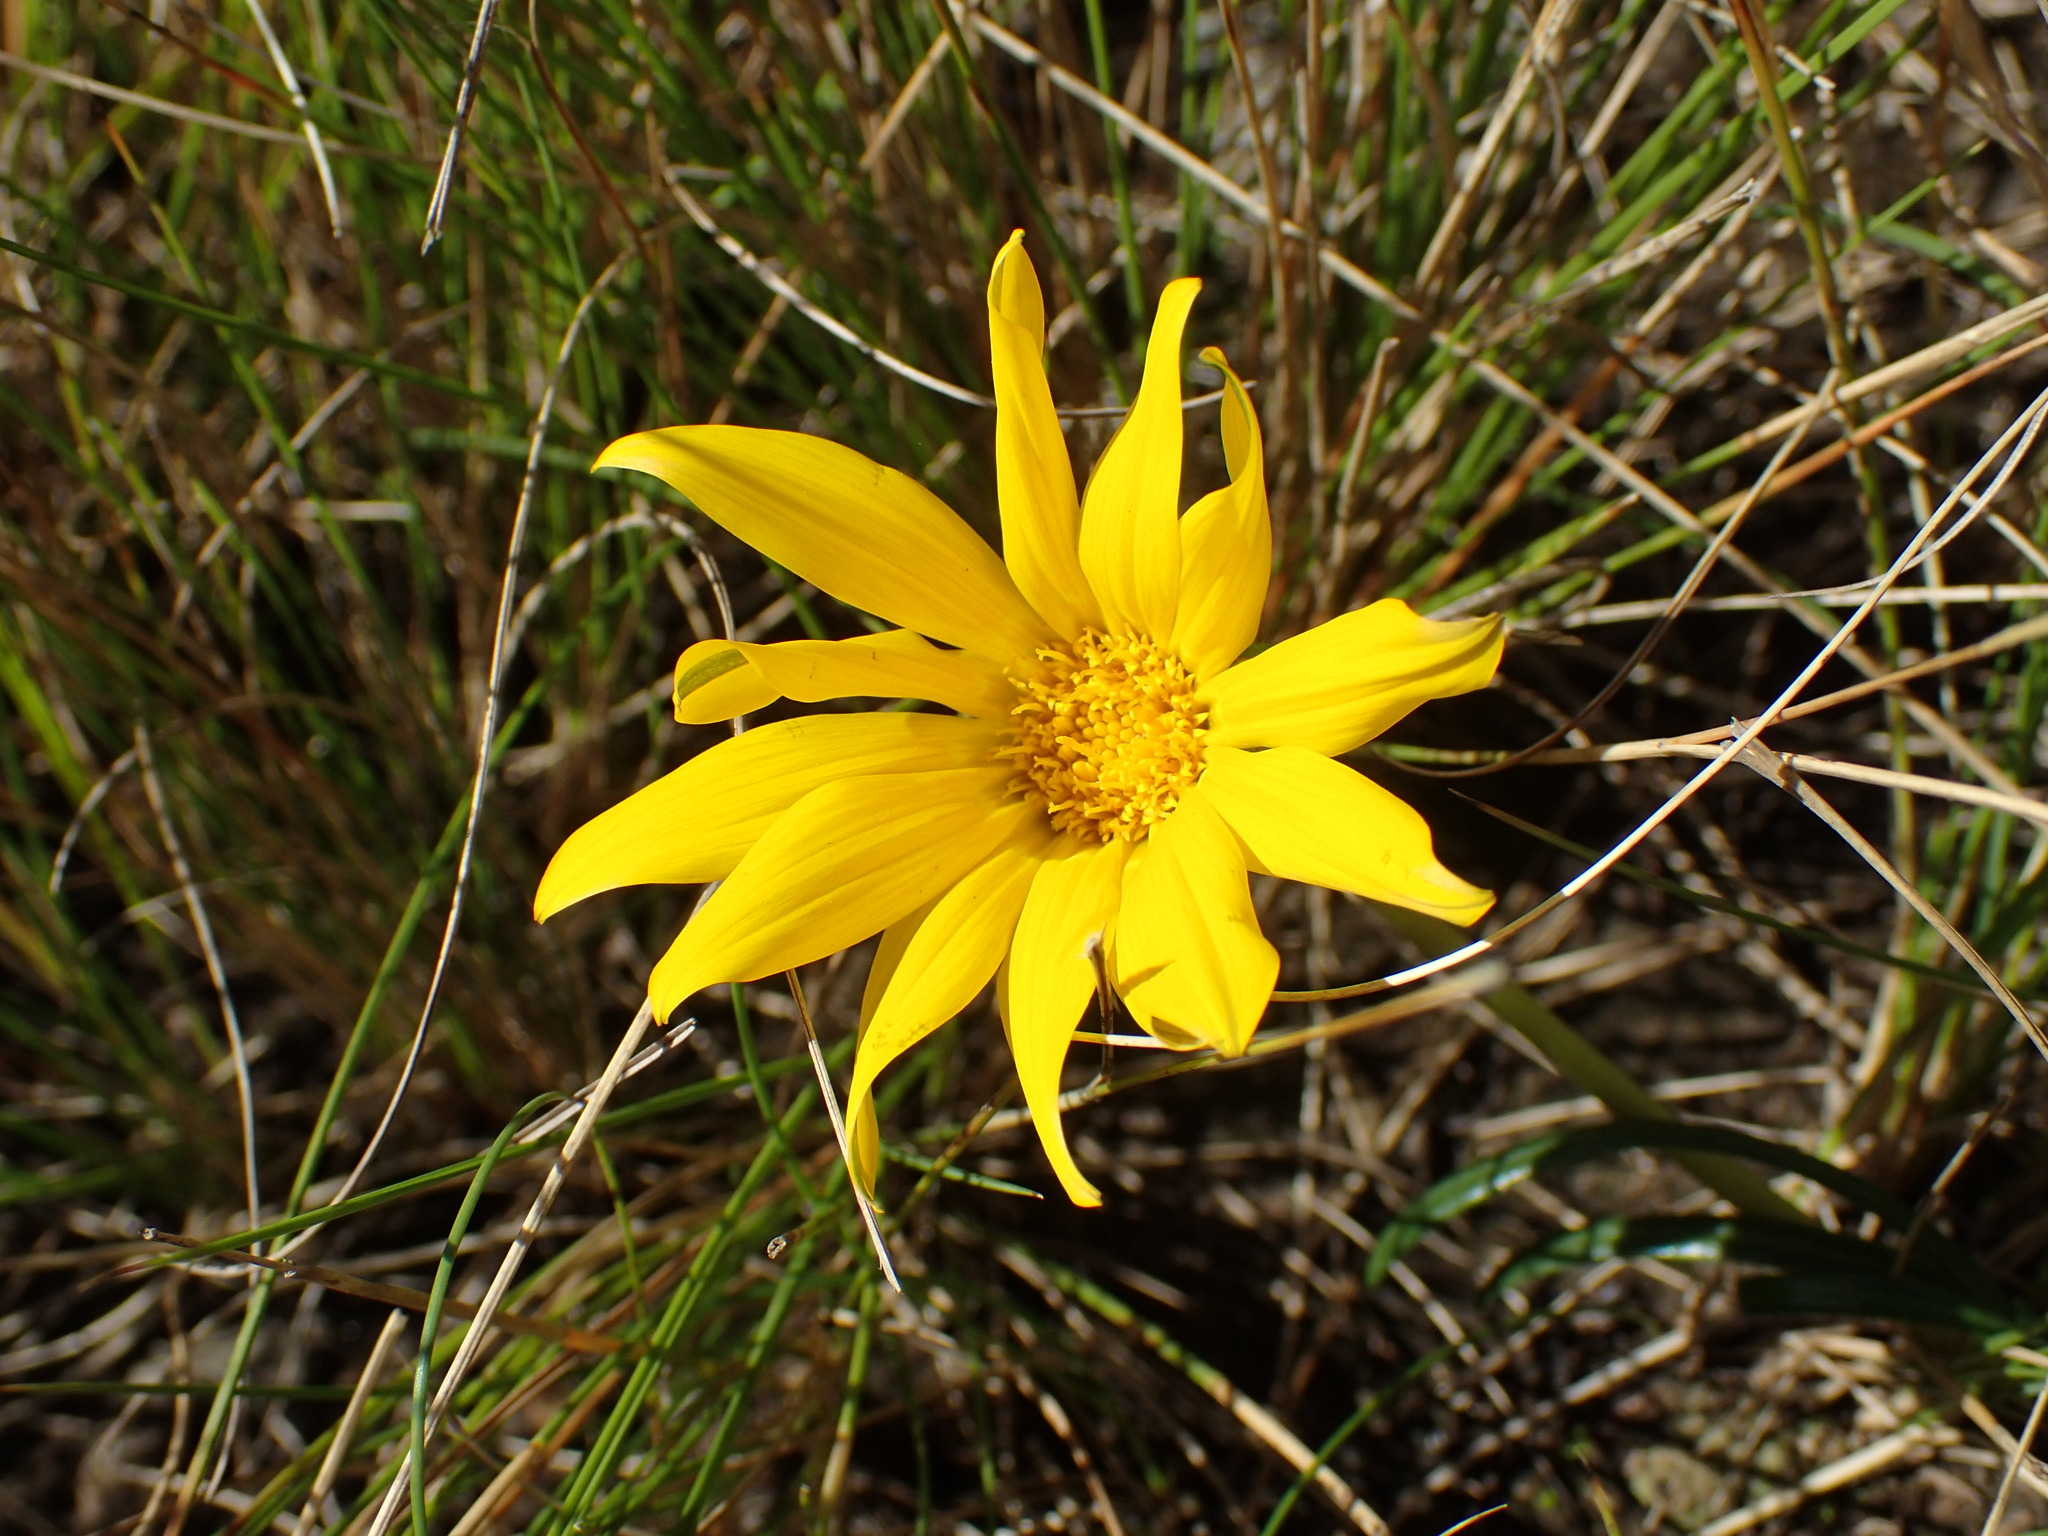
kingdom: Plantae
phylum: Tracheophyta
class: Magnoliopsida
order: Asterales
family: Asteraceae
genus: Gazania
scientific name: Gazania linearis
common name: Treasureflower
